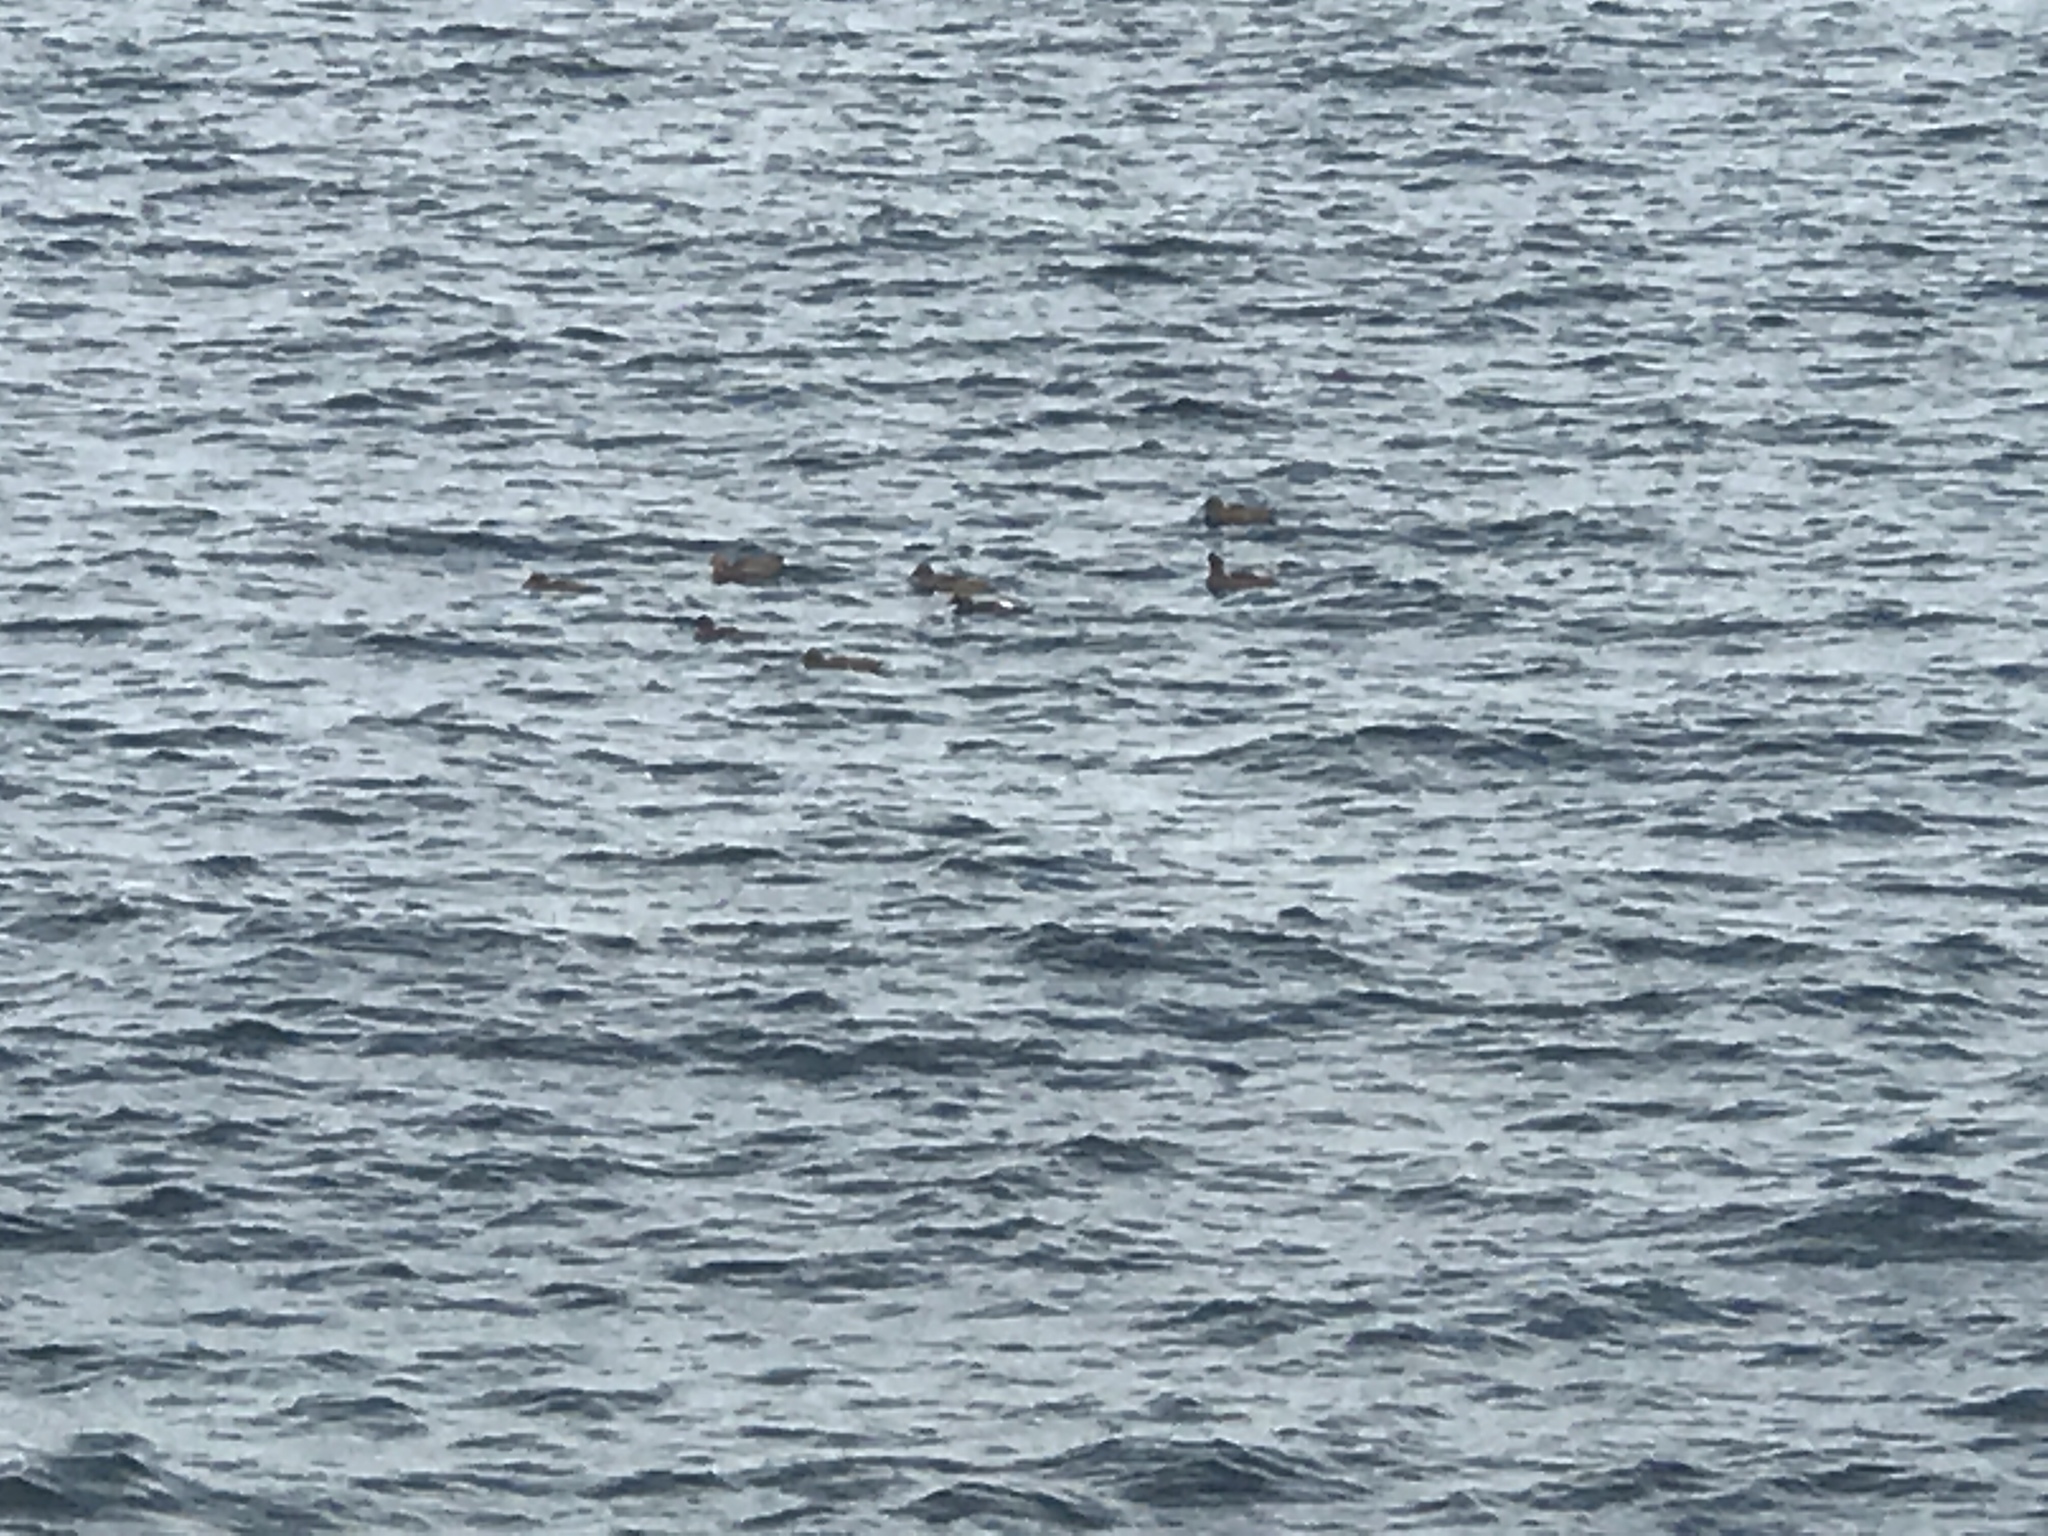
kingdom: Animalia
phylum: Chordata
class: Aves
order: Anseriformes
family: Anatidae
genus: Melanitta
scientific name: Melanitta deglandi
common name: White-winged scoter
